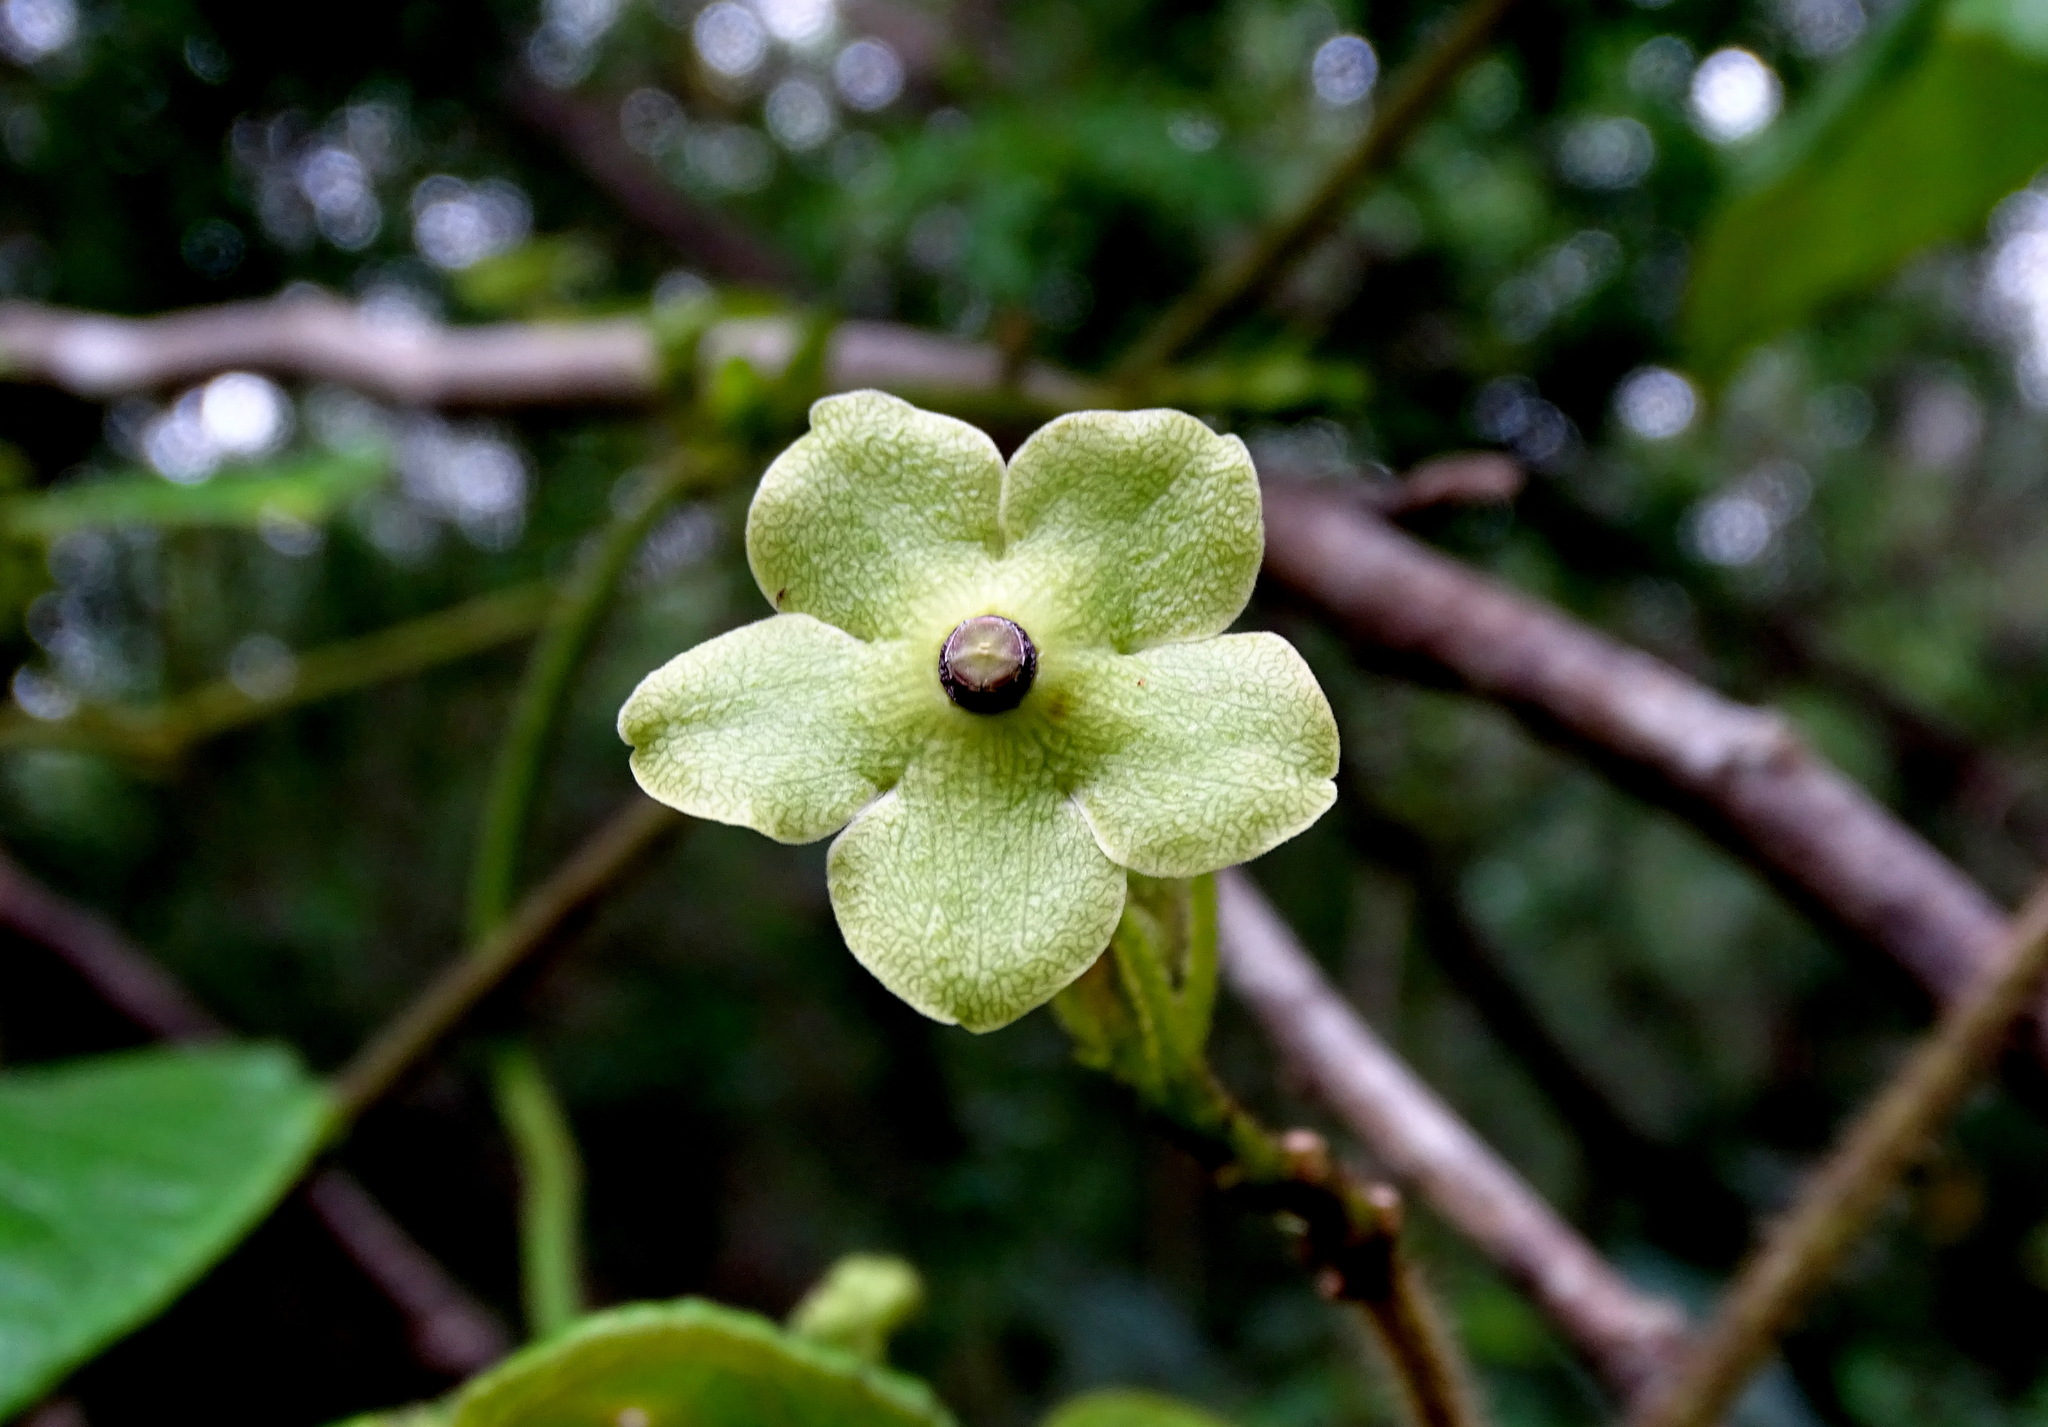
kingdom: Plantae
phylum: Tracheophyta
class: Magnoliopsida
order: Gentianales
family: Apocynaceae
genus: Matelea
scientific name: Matelea gentlei
